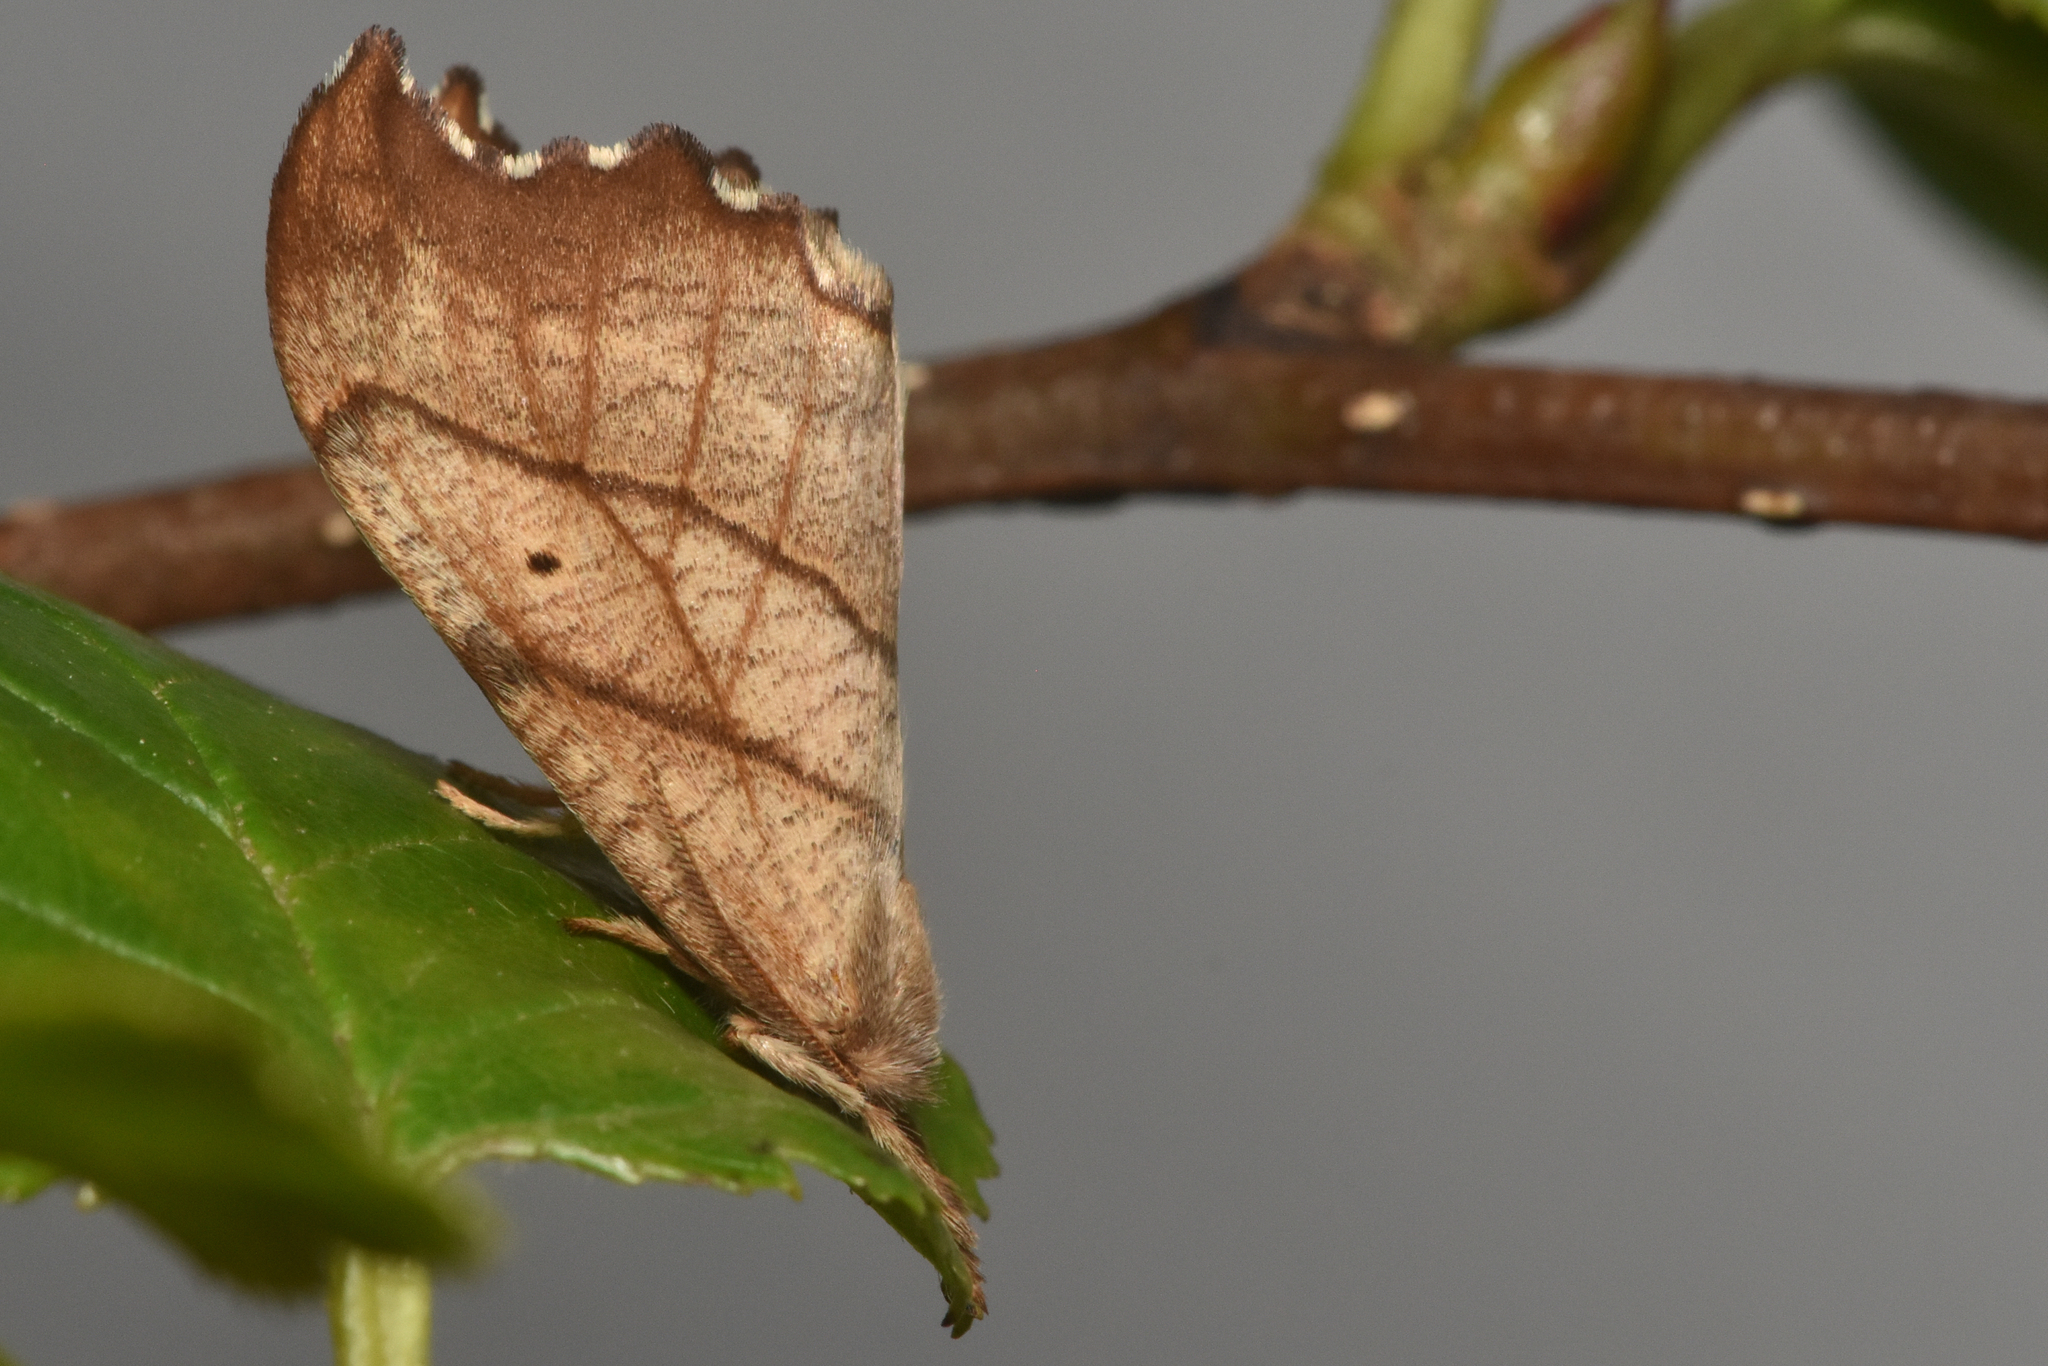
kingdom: Animalia
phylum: Arthropoda
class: Insecta
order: Lepidoptera
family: Drepanidae
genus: Falcaria
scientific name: Falcaria bilineata
